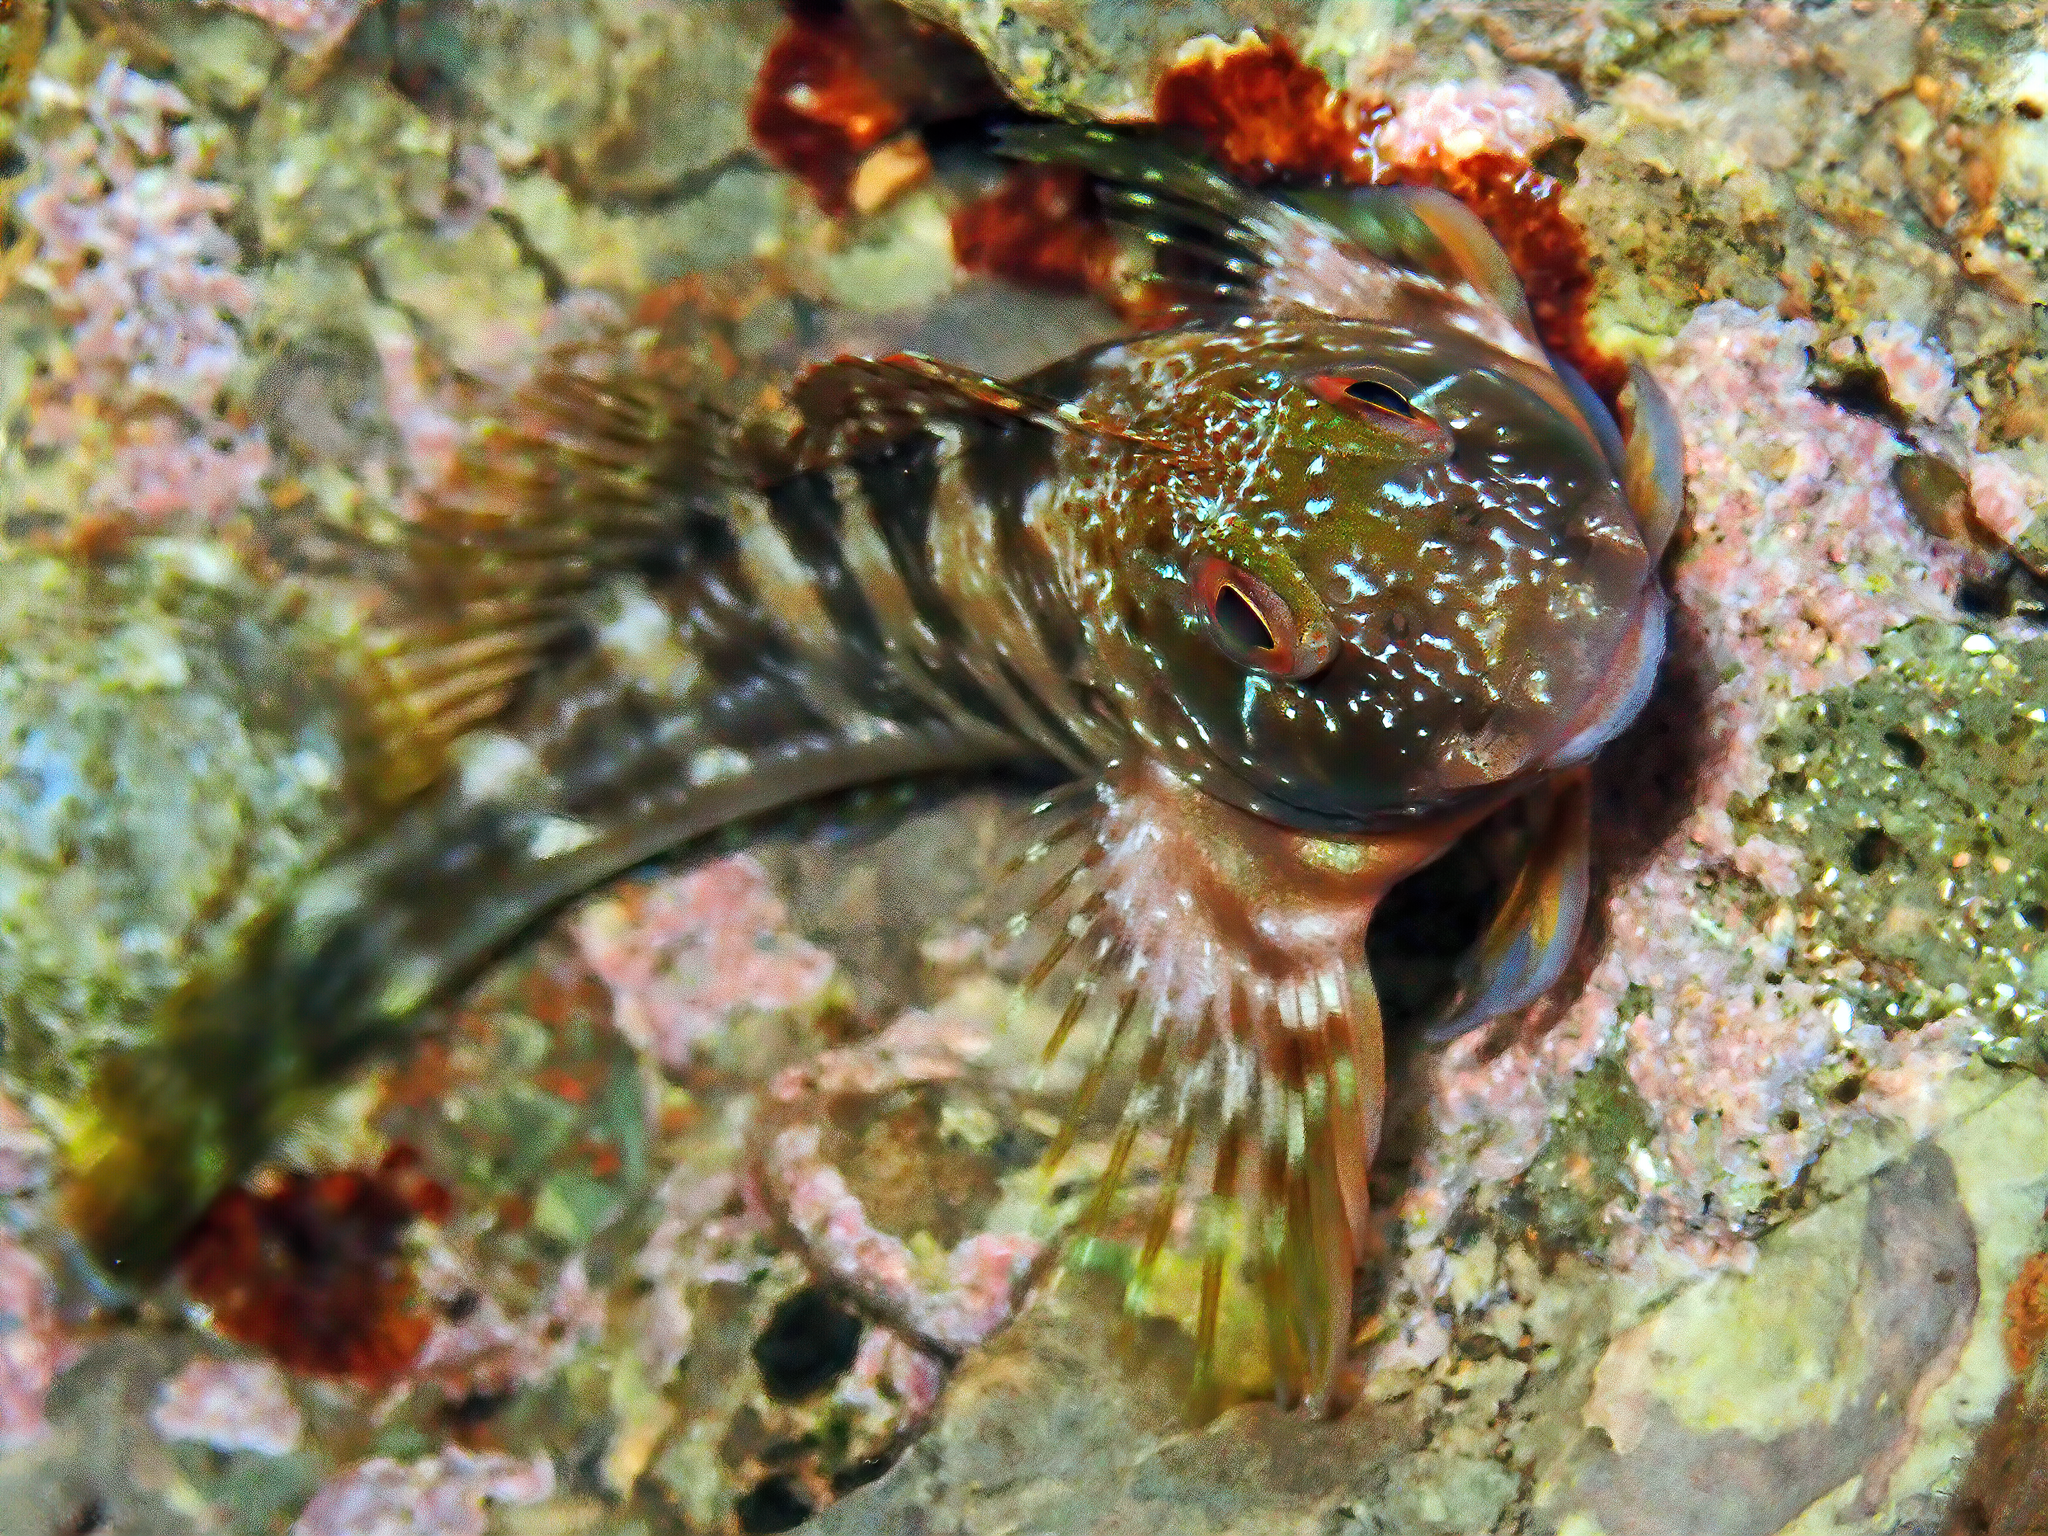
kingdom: Animalia
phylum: Chordata
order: Perciformes
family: Blenniidae
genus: Scartella
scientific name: Scartella cristata
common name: Molly miller
